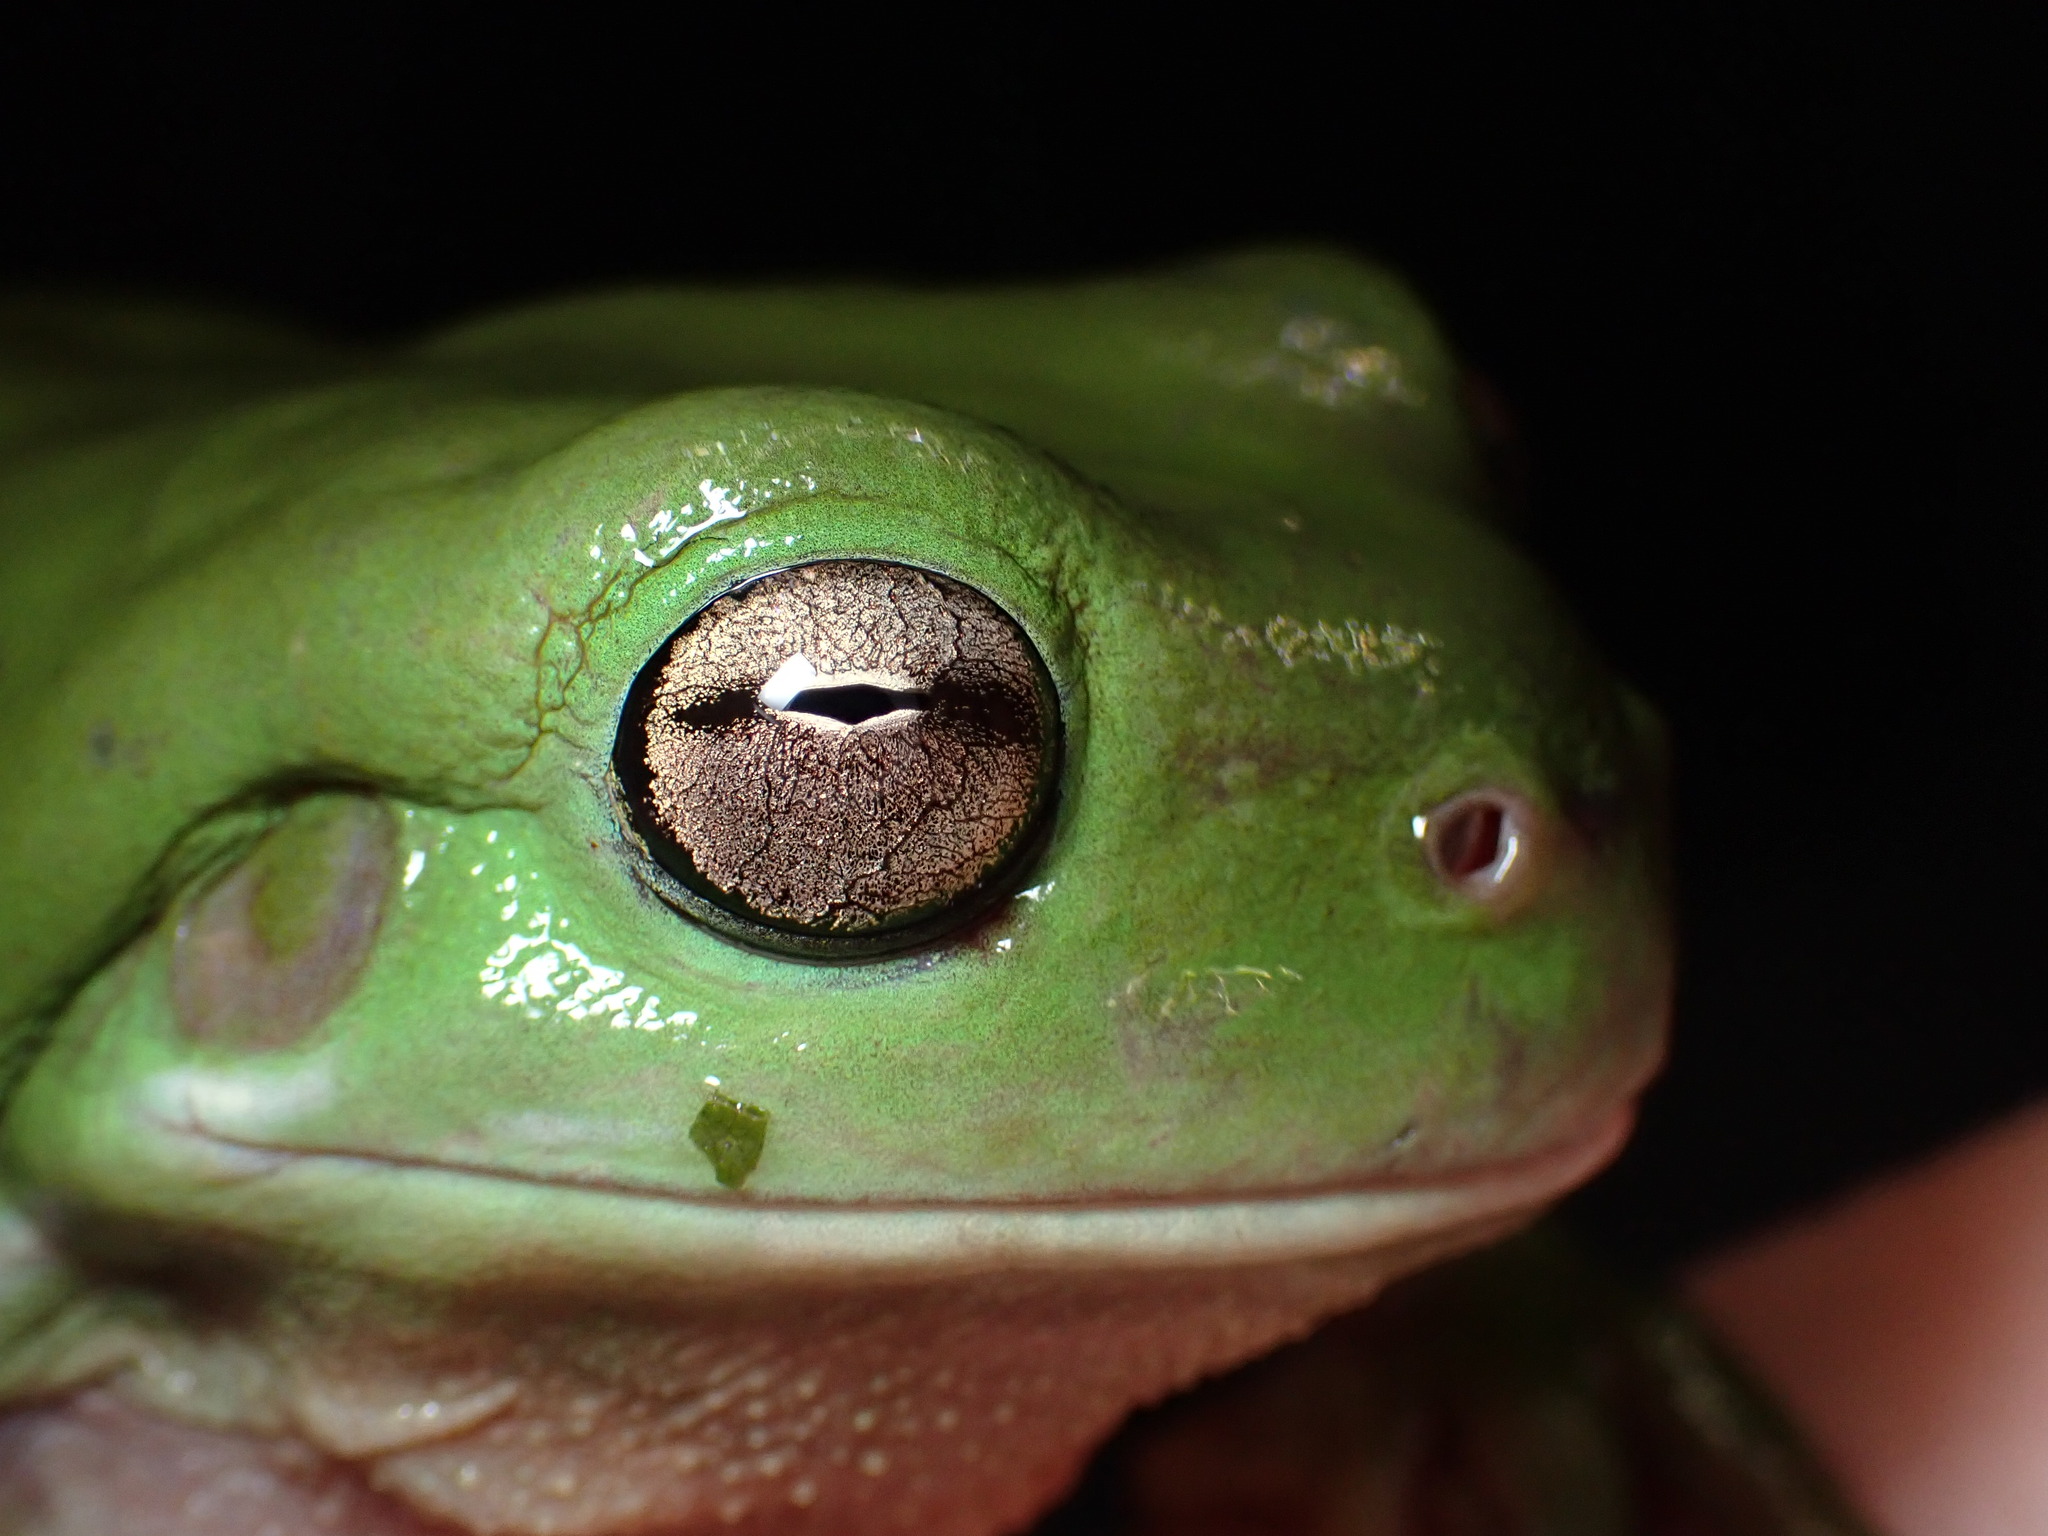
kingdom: Animalia
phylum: Chordata
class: Amphibia
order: Anura
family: Pelodryadidae
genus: Ranoidea
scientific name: Ranoidea caerulea
